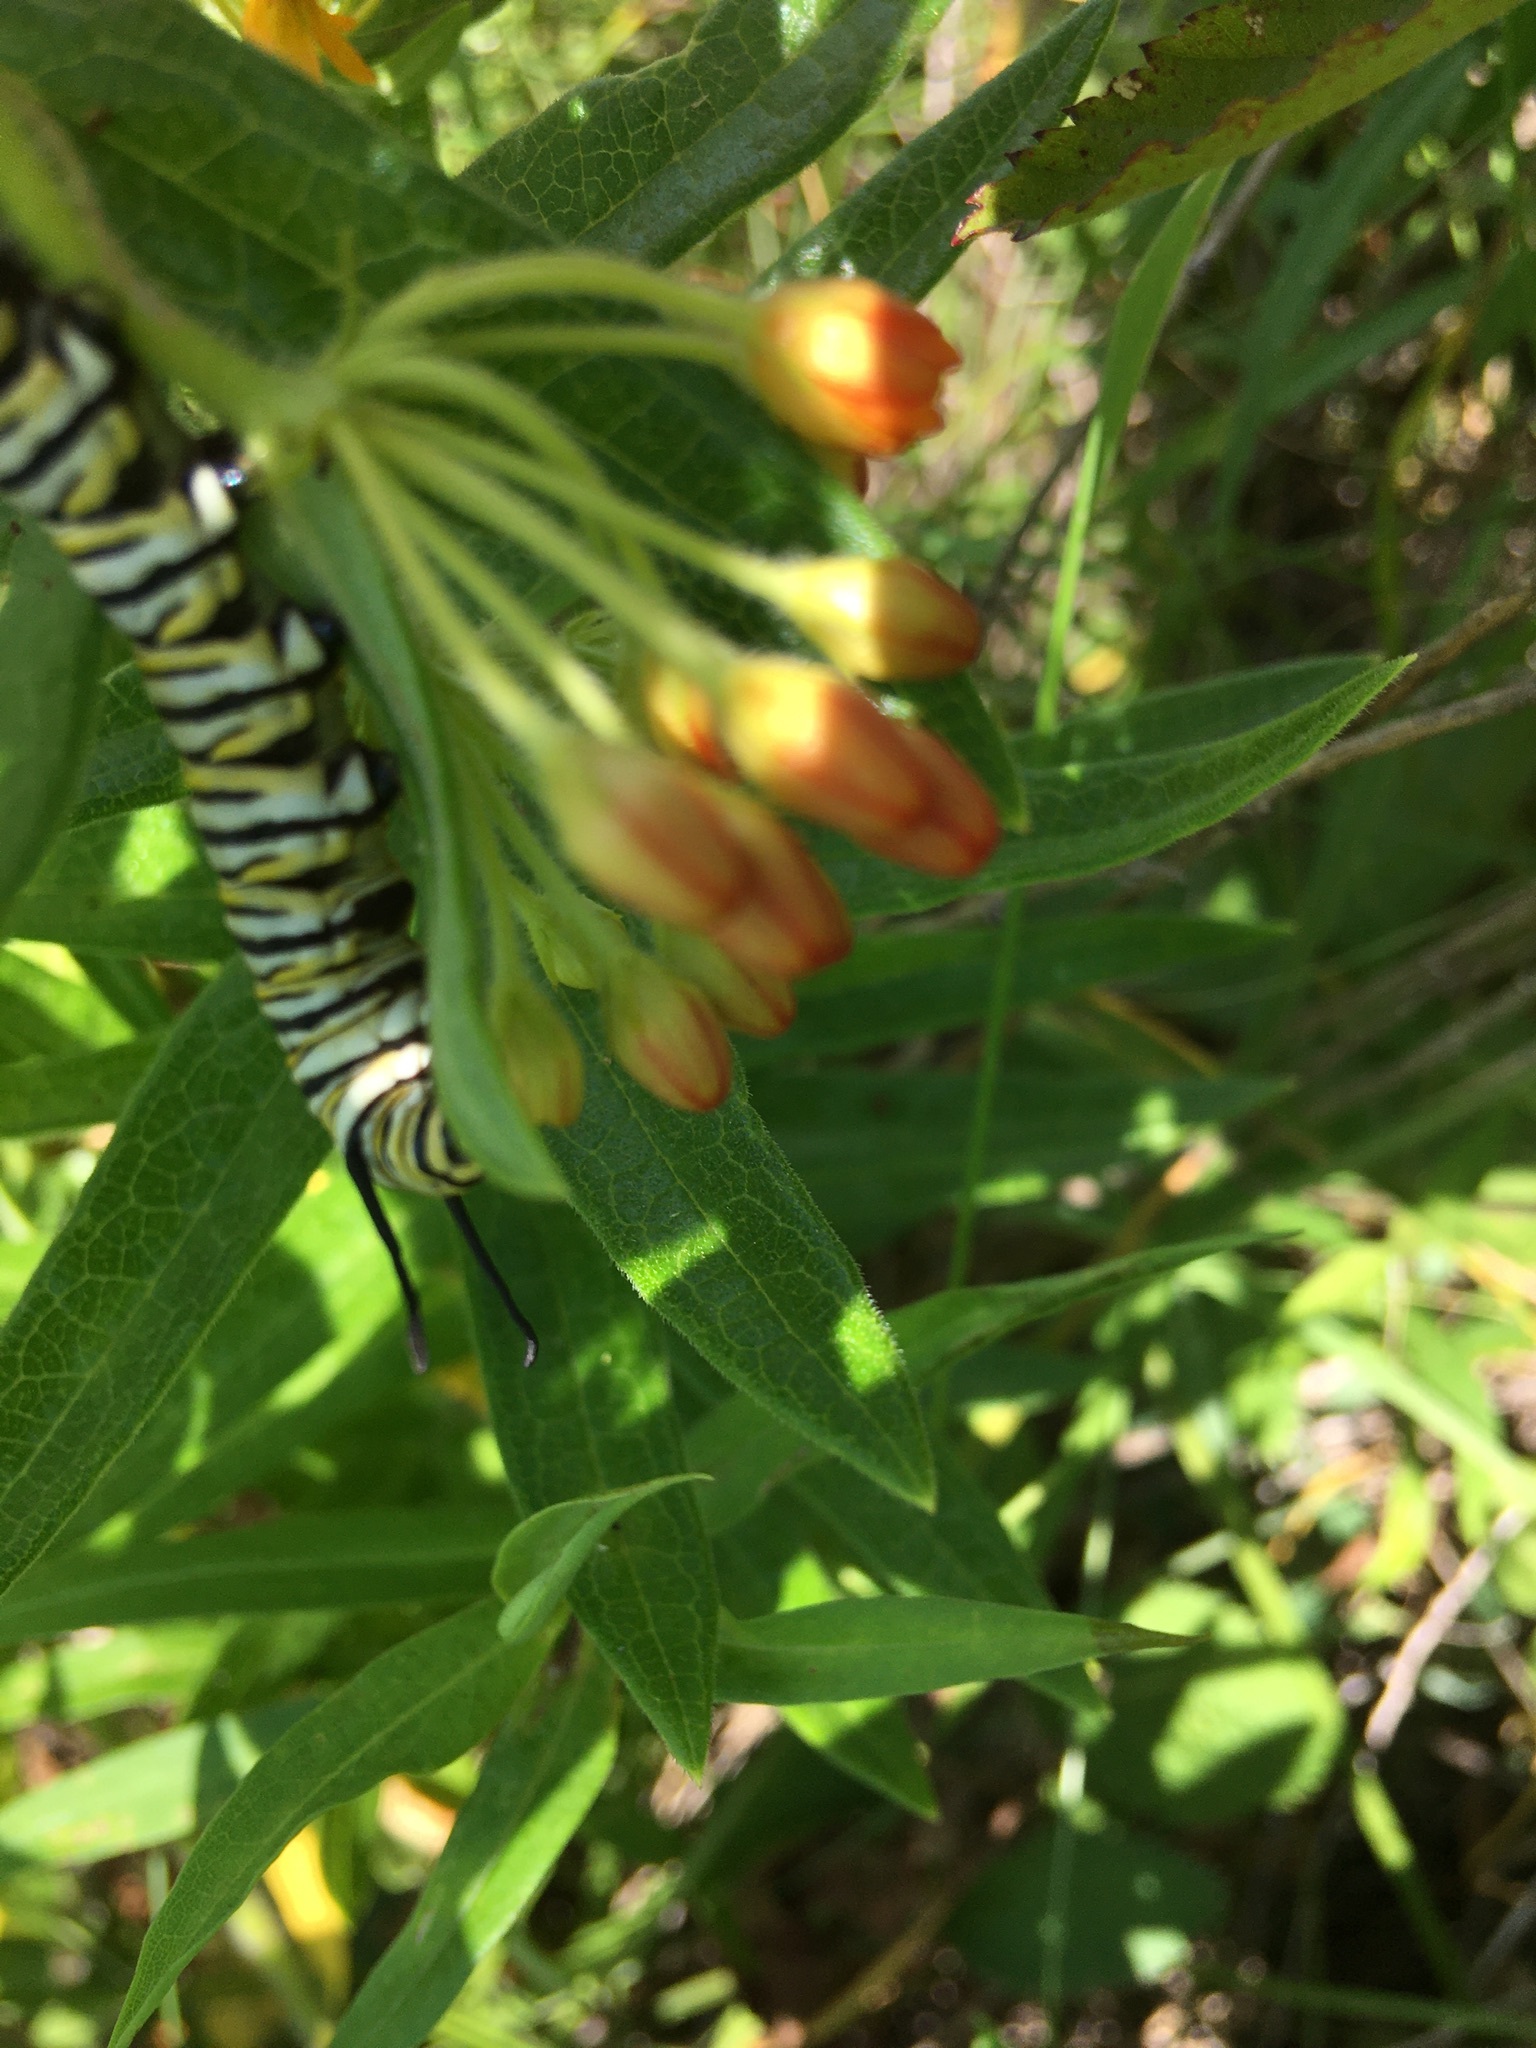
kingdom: Animalia
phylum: Arthropoda
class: Insecta
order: Lepidoptera
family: Nymphalidae
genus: Danaus
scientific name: Danaus plexippus
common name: Monarch
